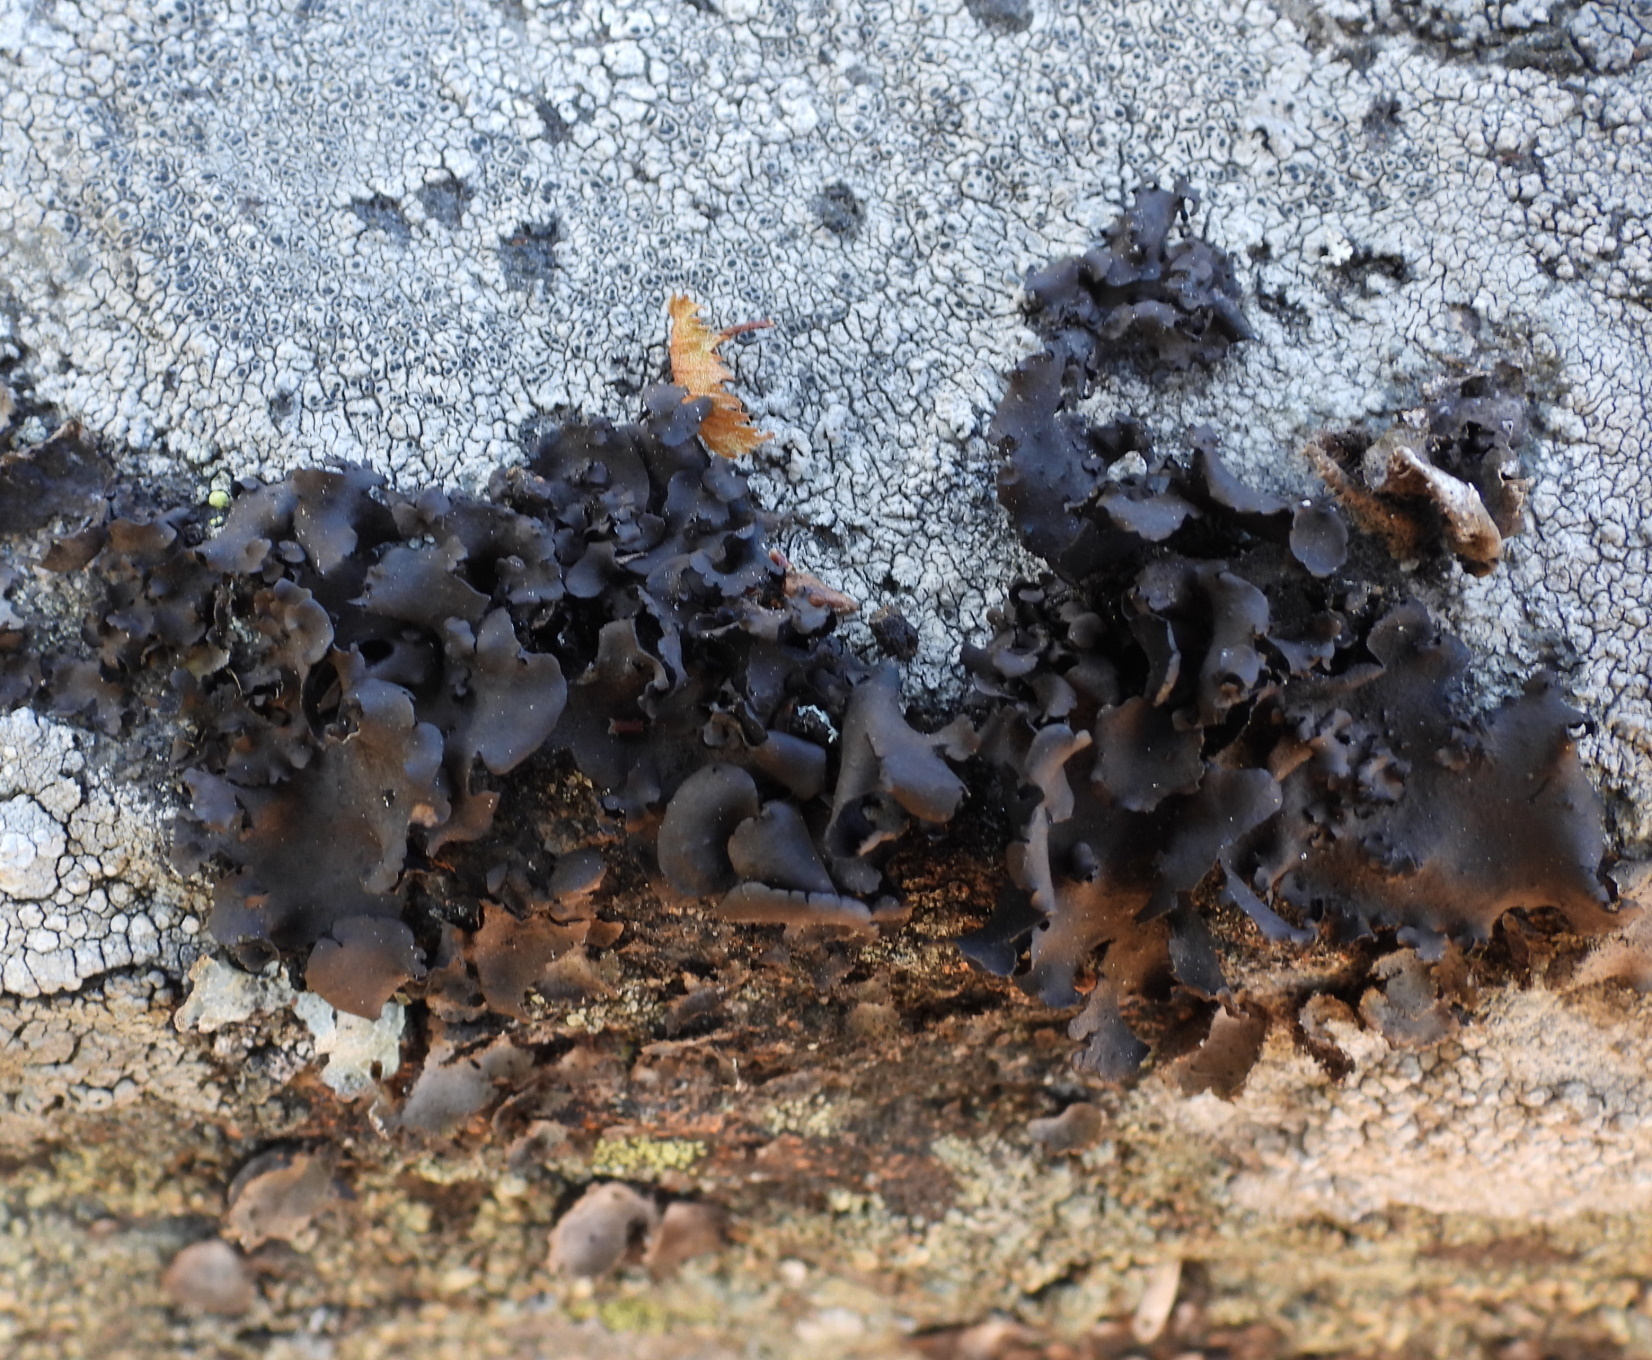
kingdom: Fungi
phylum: Ascomycota
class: Lecanoromycetes
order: Umbilicariales
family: Umbilicariaceae
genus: Umbilicaria
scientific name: Umbilicaria polyphylla
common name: Petalled rocktripe lichen
